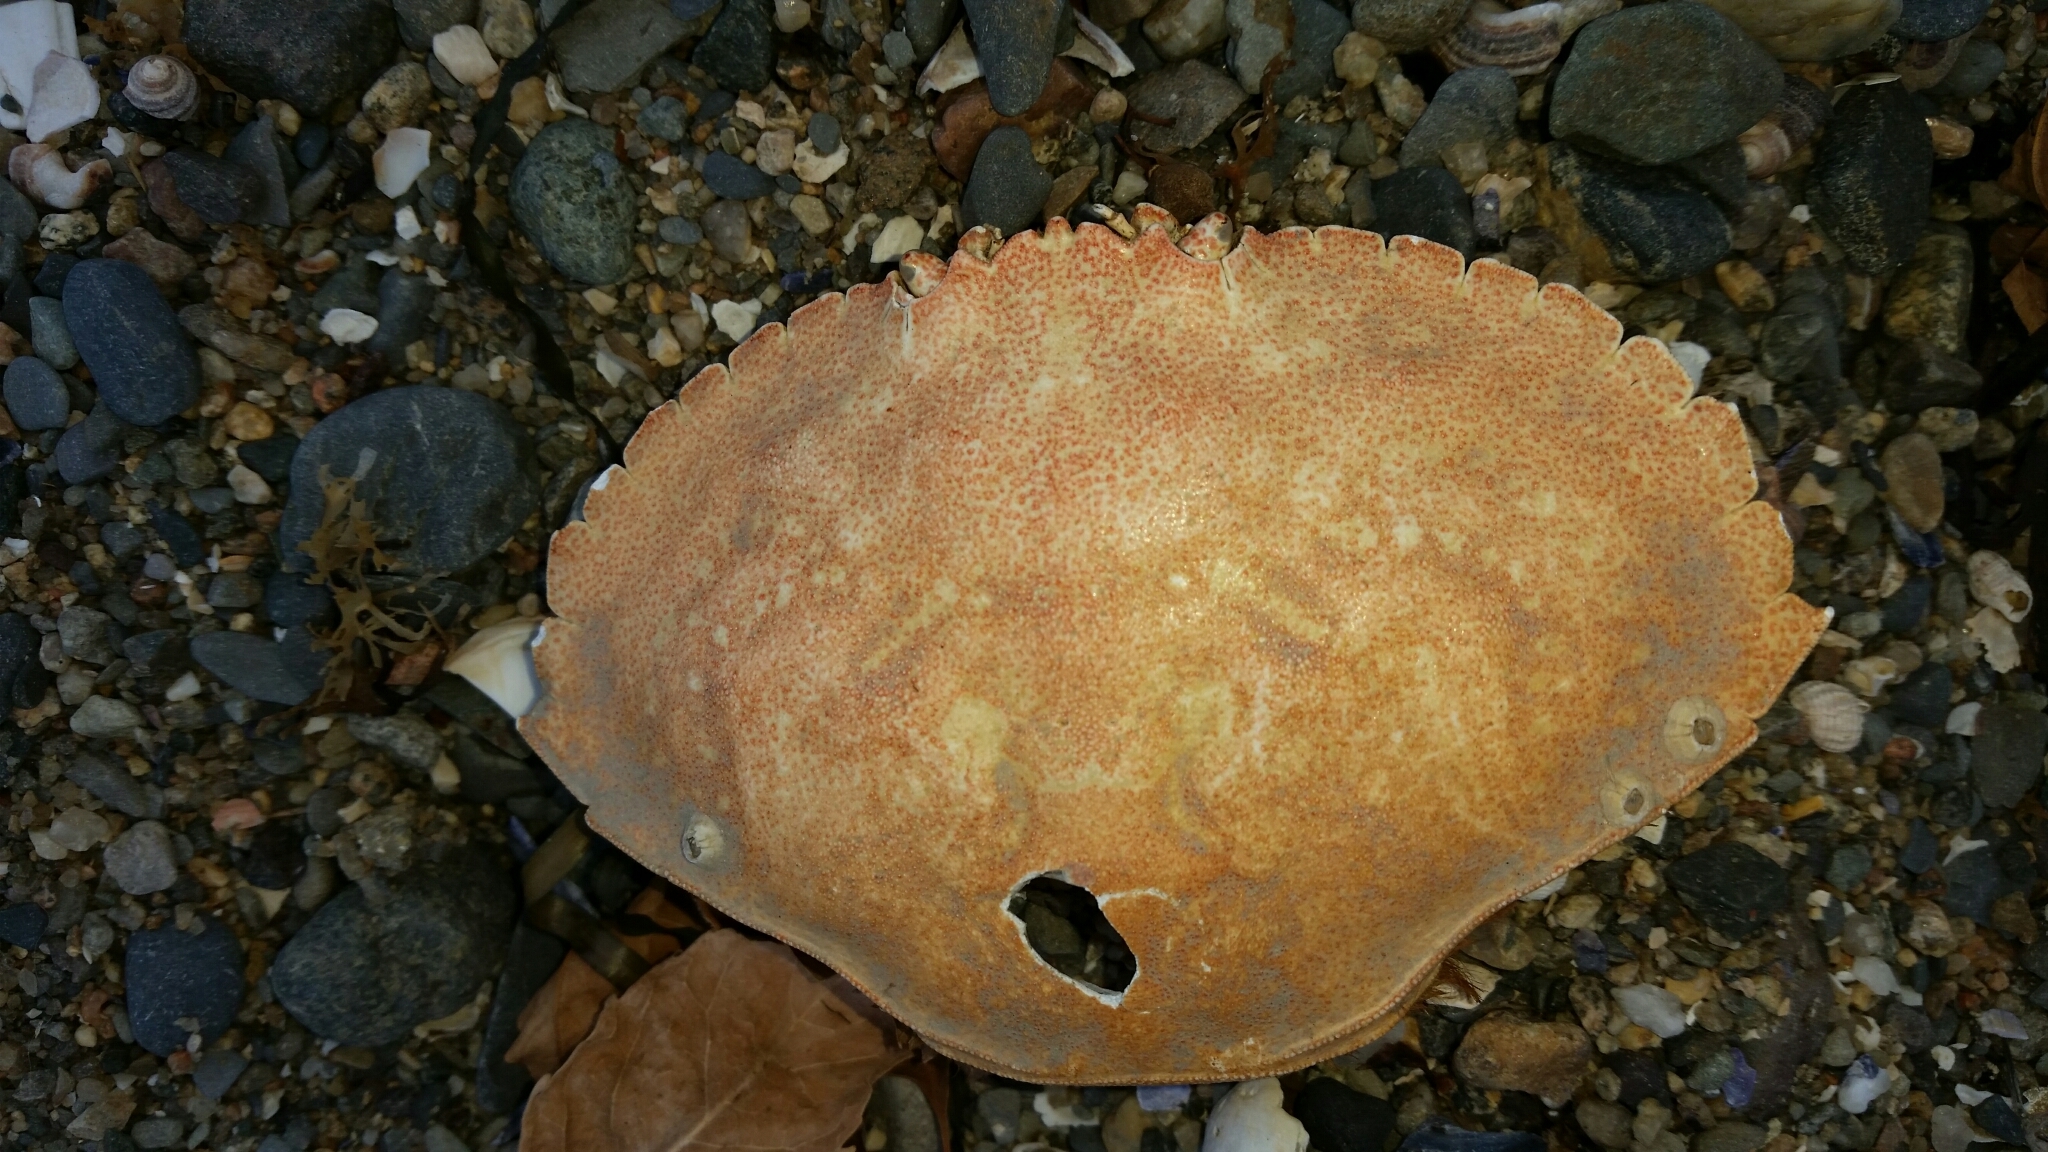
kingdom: Animalia
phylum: Arthropoda
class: Malacostraca
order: Decapoda
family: Cancridae
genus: Cancer
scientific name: Cancer irroratus
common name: Atlantic rock crab
